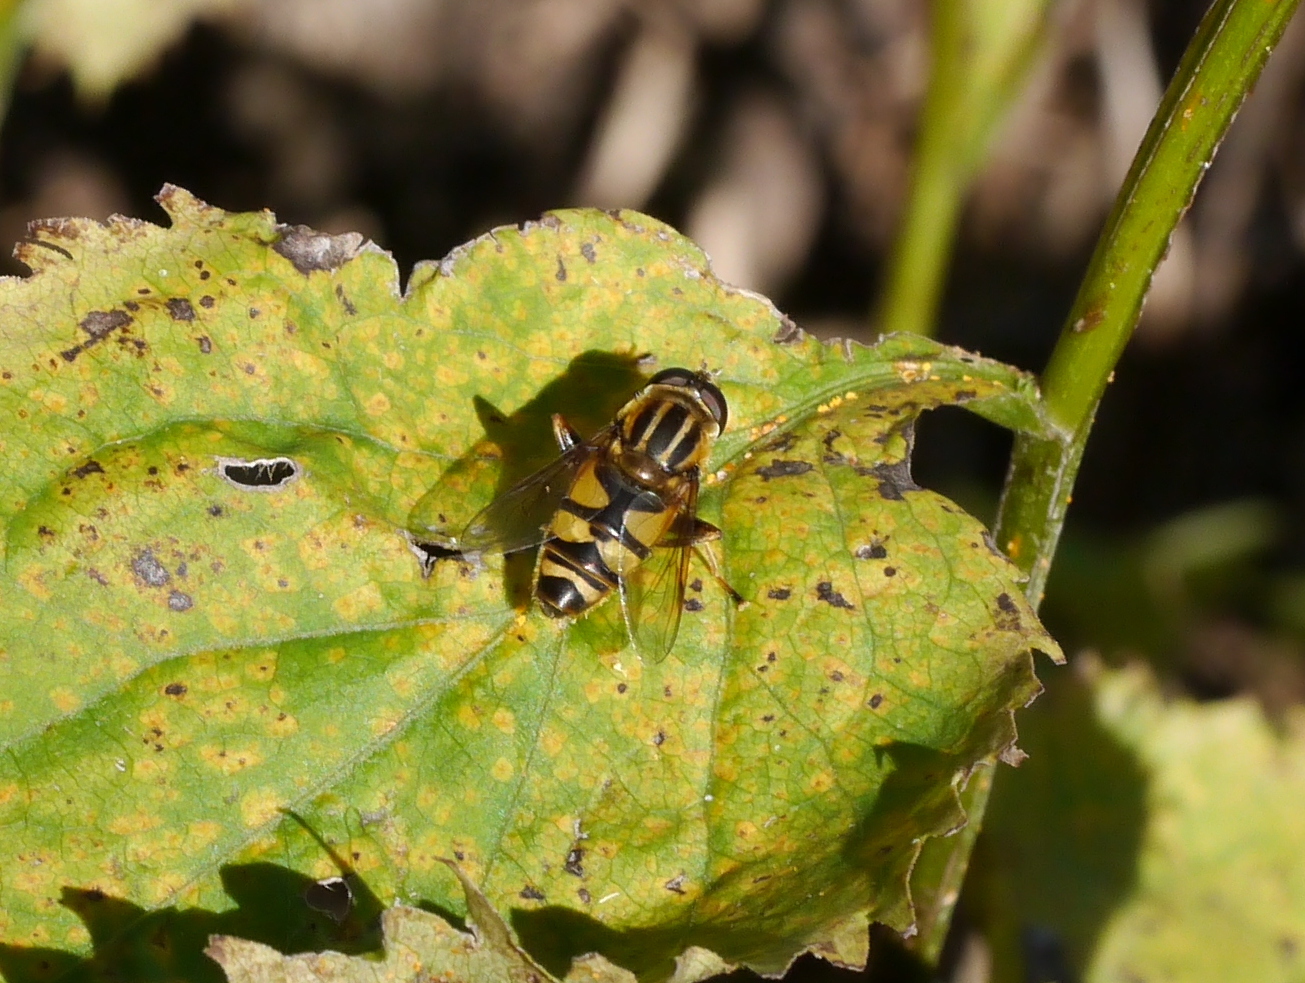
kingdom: Animalia
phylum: Arthropoda
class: Insecta
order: Diptera
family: Syrphidae
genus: Helophilus
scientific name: Helophilus fasciatus
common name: Narrow-headed marsh fly
